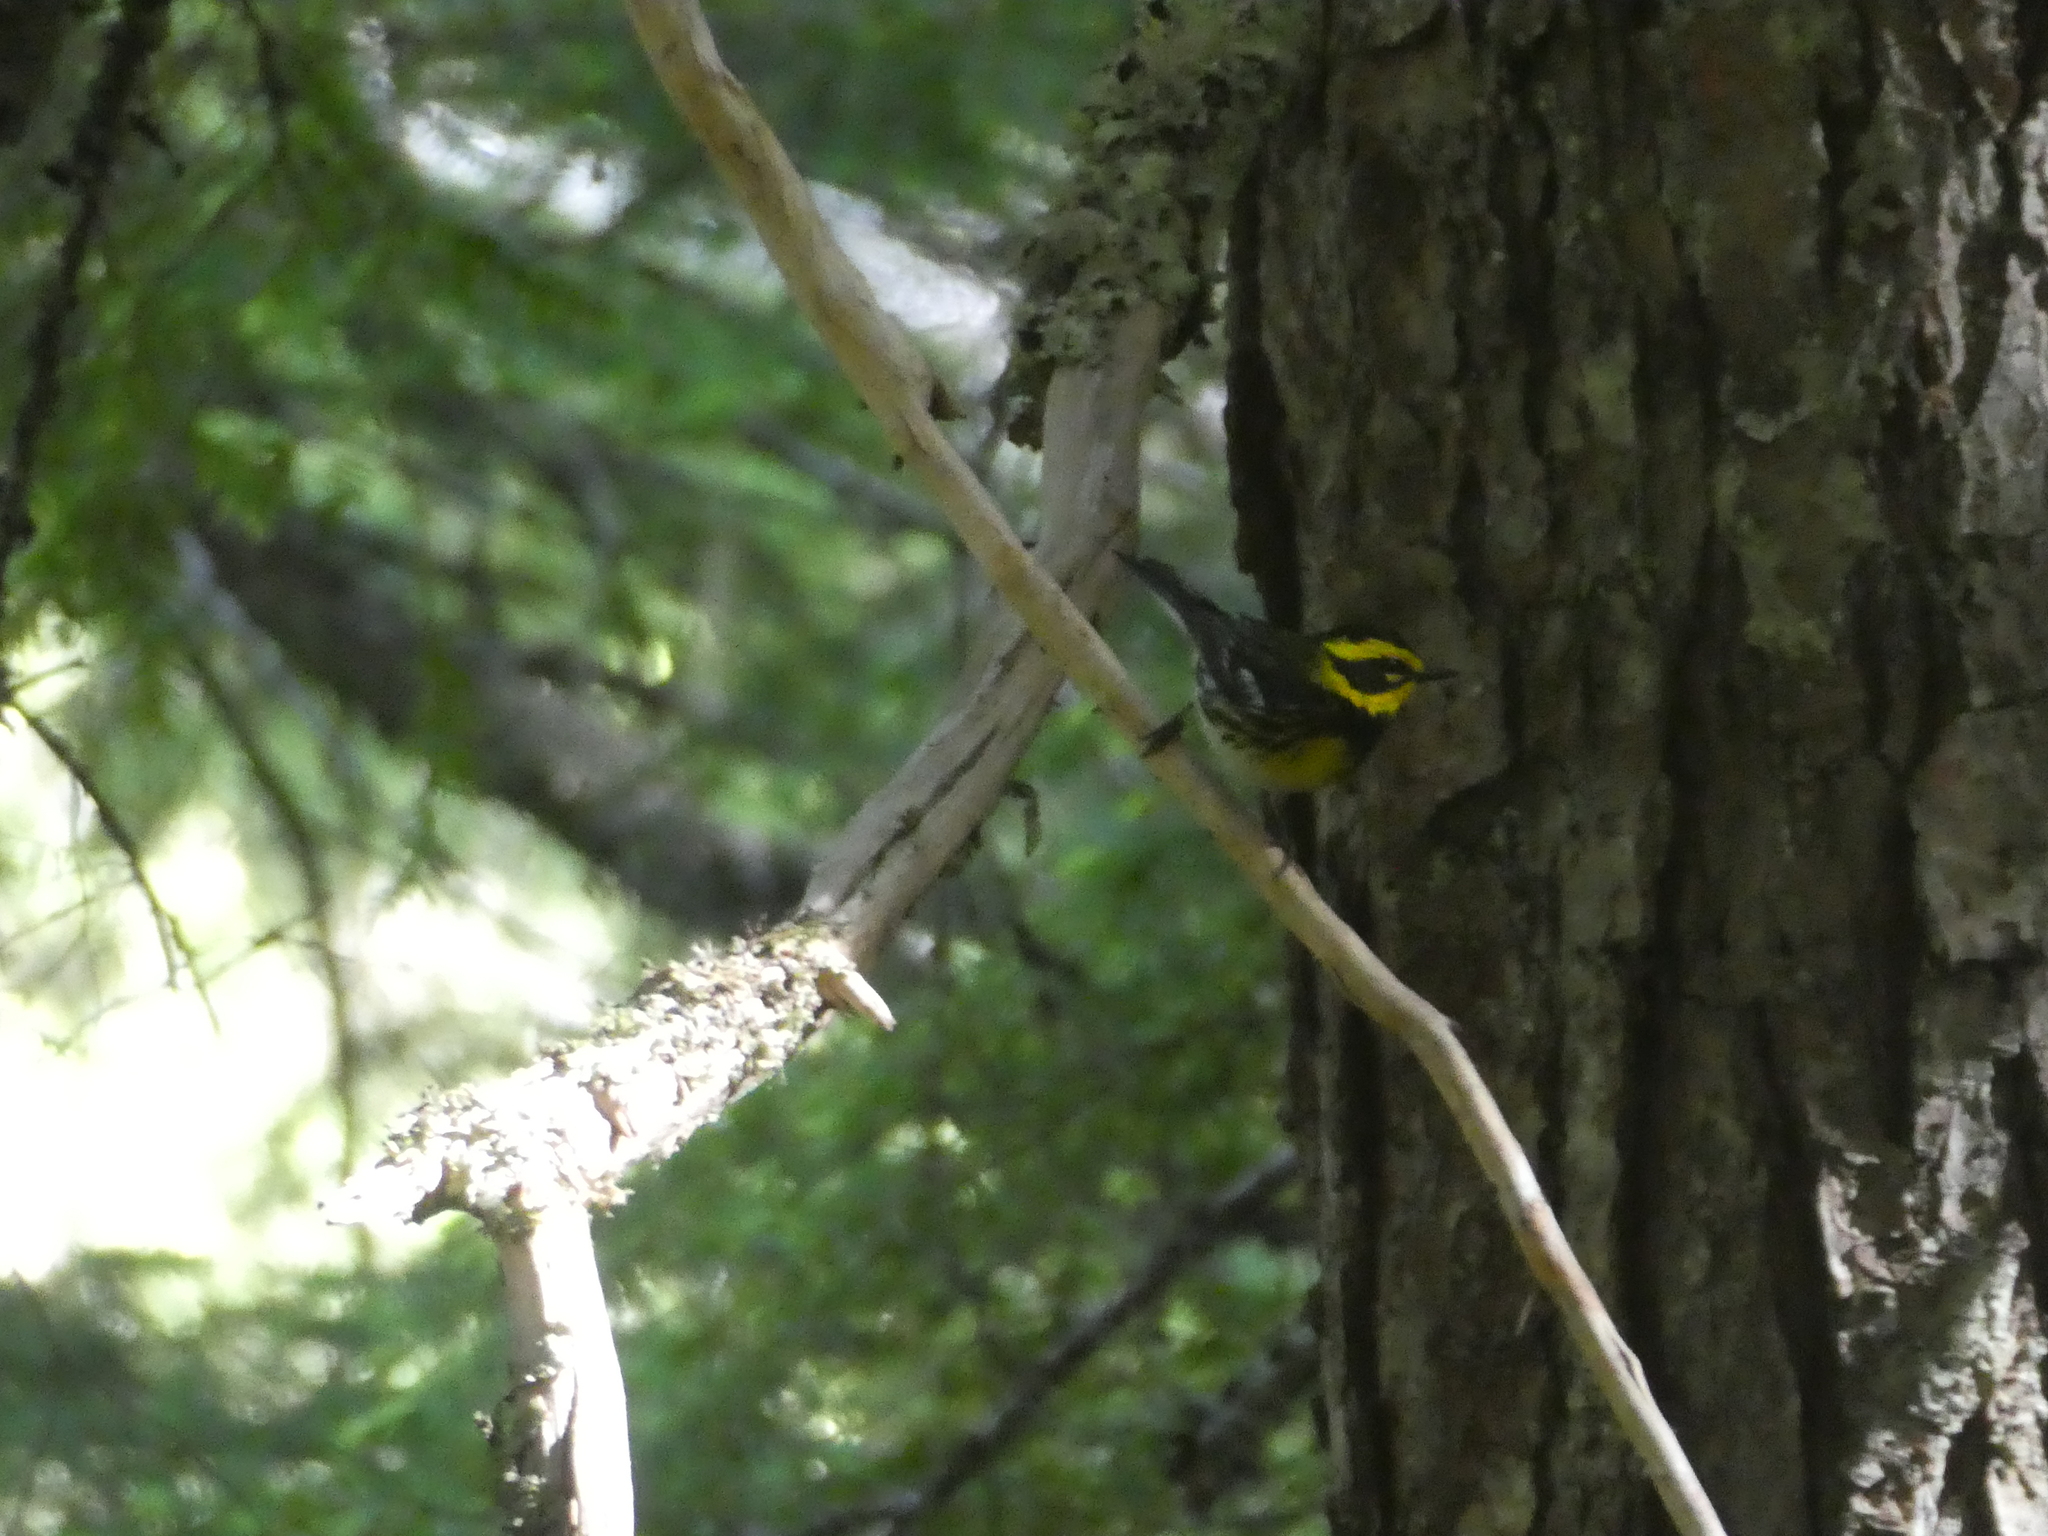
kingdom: Animalia
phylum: Chordata
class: Aves
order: Passeriformes
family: Parulidae
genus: Setophaga
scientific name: Setophaga townsendi
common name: Townsend's warbler
